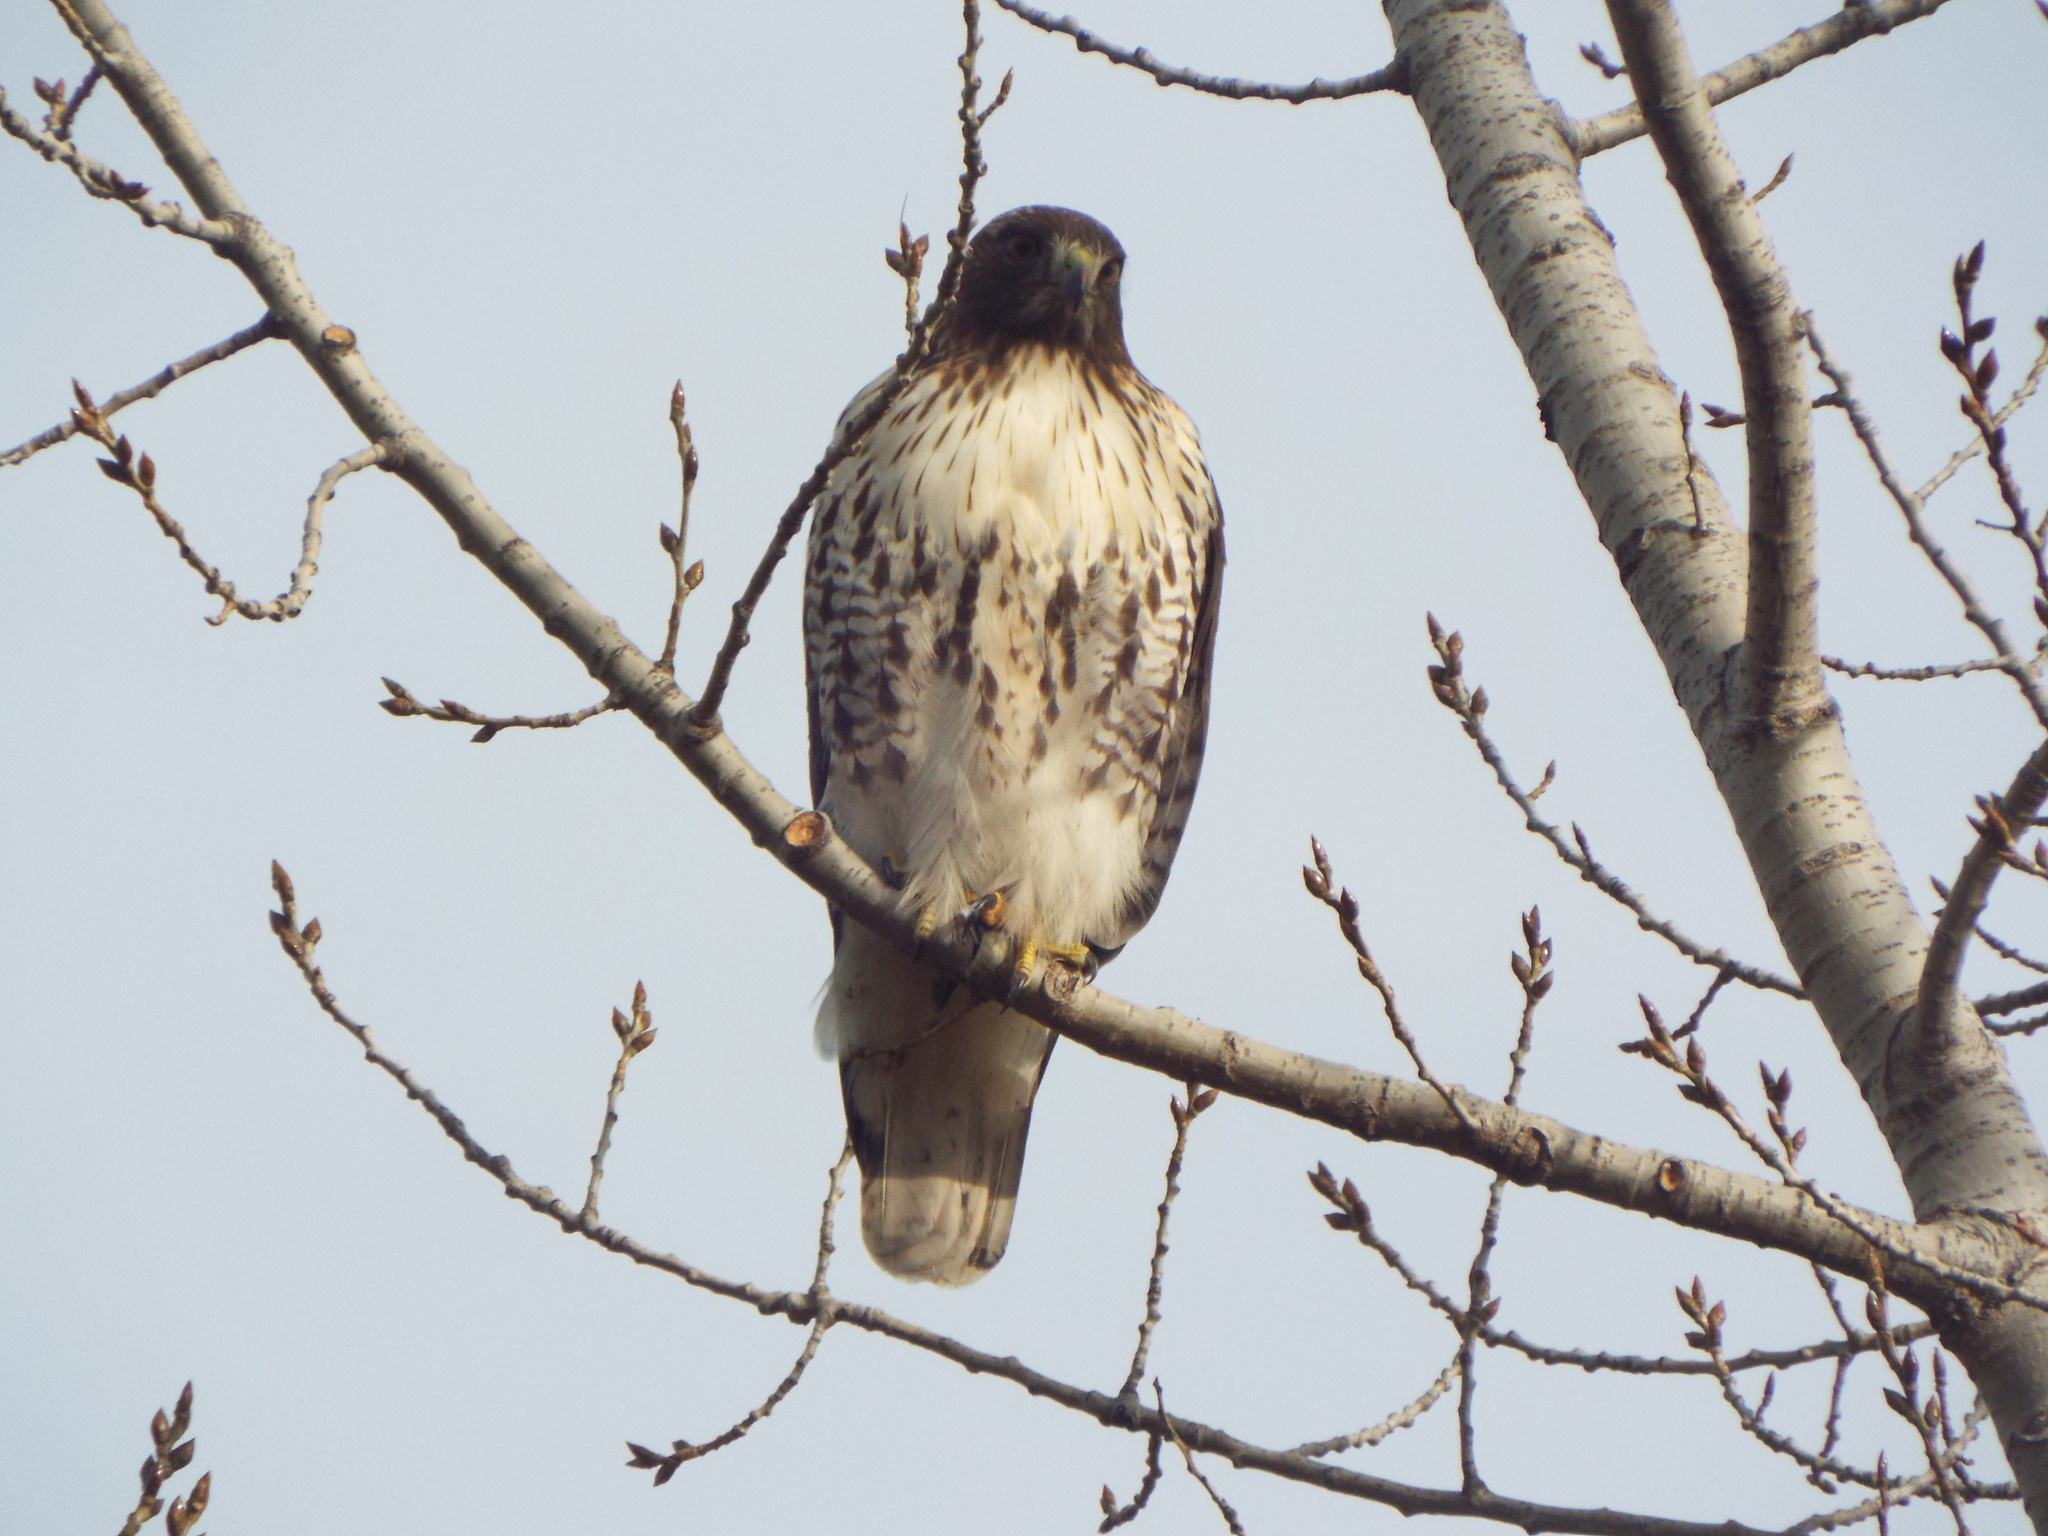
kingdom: Animalia
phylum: Chordata
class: Aves
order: Accipitriformes
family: Accipitridae
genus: Buteo
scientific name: Buteo jamaicensis
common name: Red-tailed hawk
